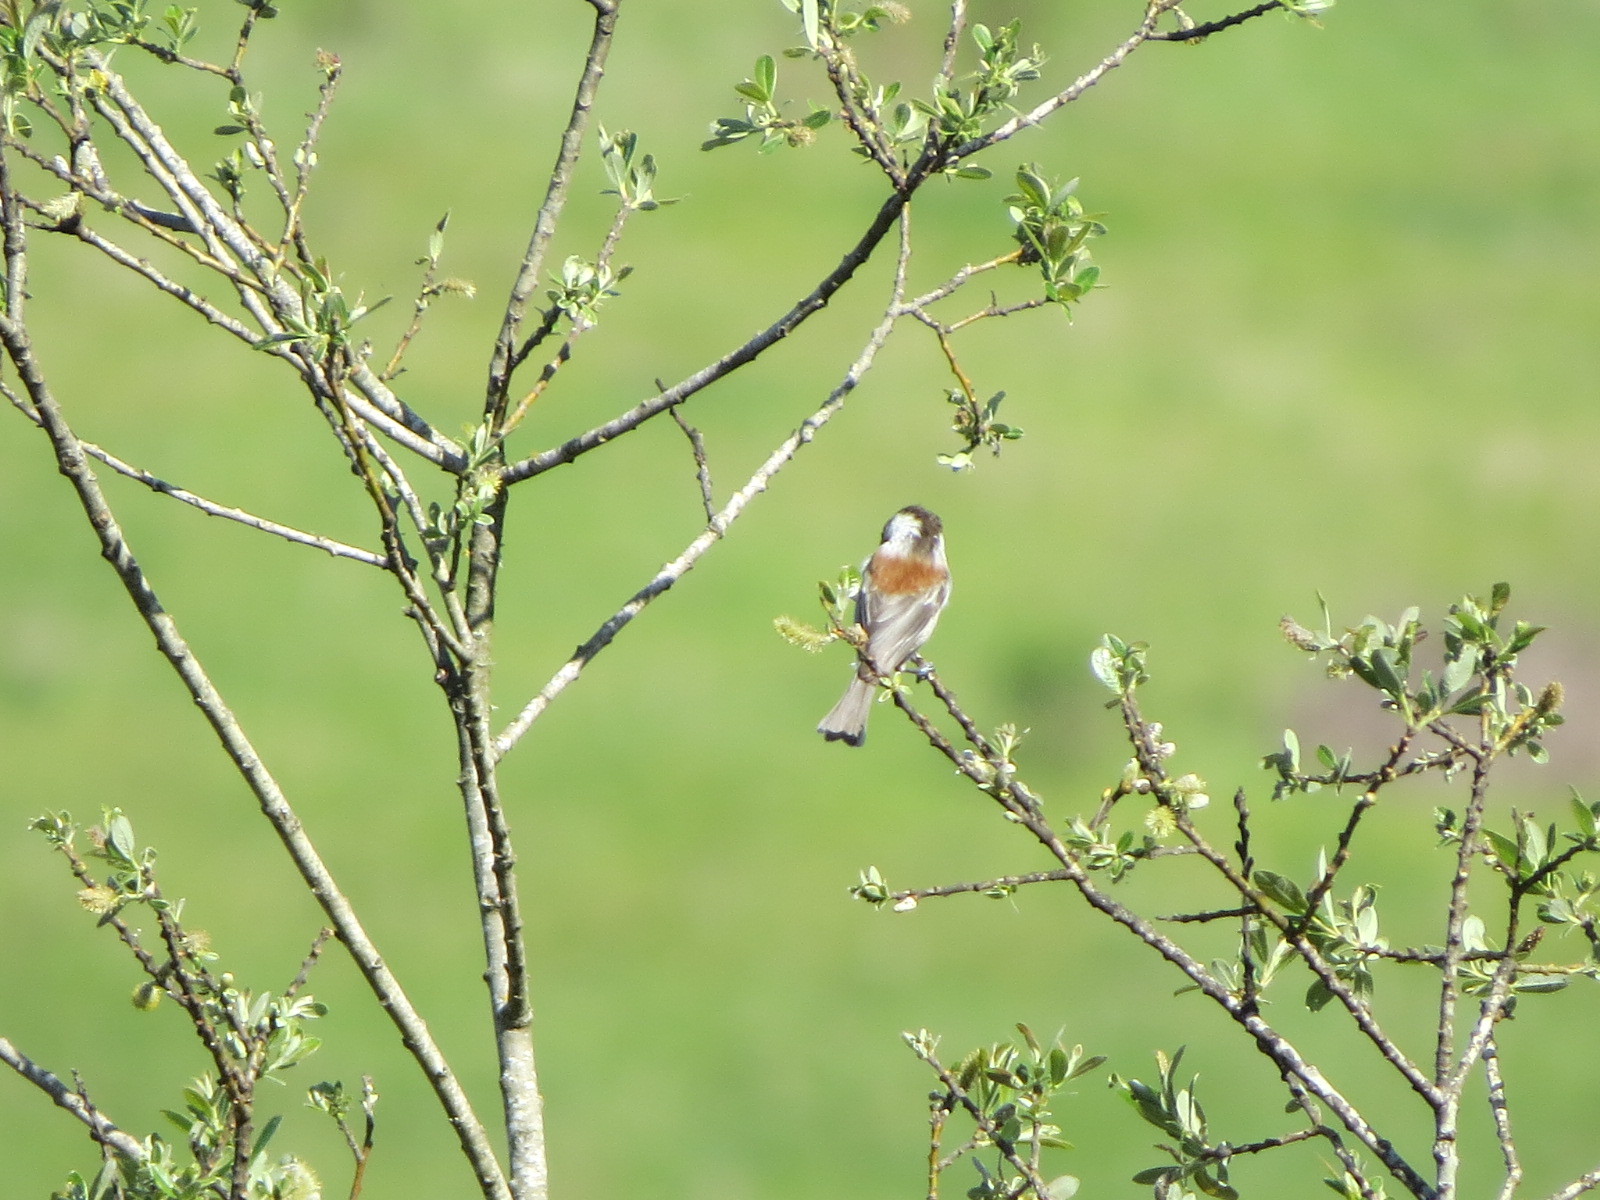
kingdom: Animalia
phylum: Chordata
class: Aves
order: Passeriformes
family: Paridae
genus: Poecile
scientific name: Poecile rufescens
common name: Chestnut-backed chickadee
